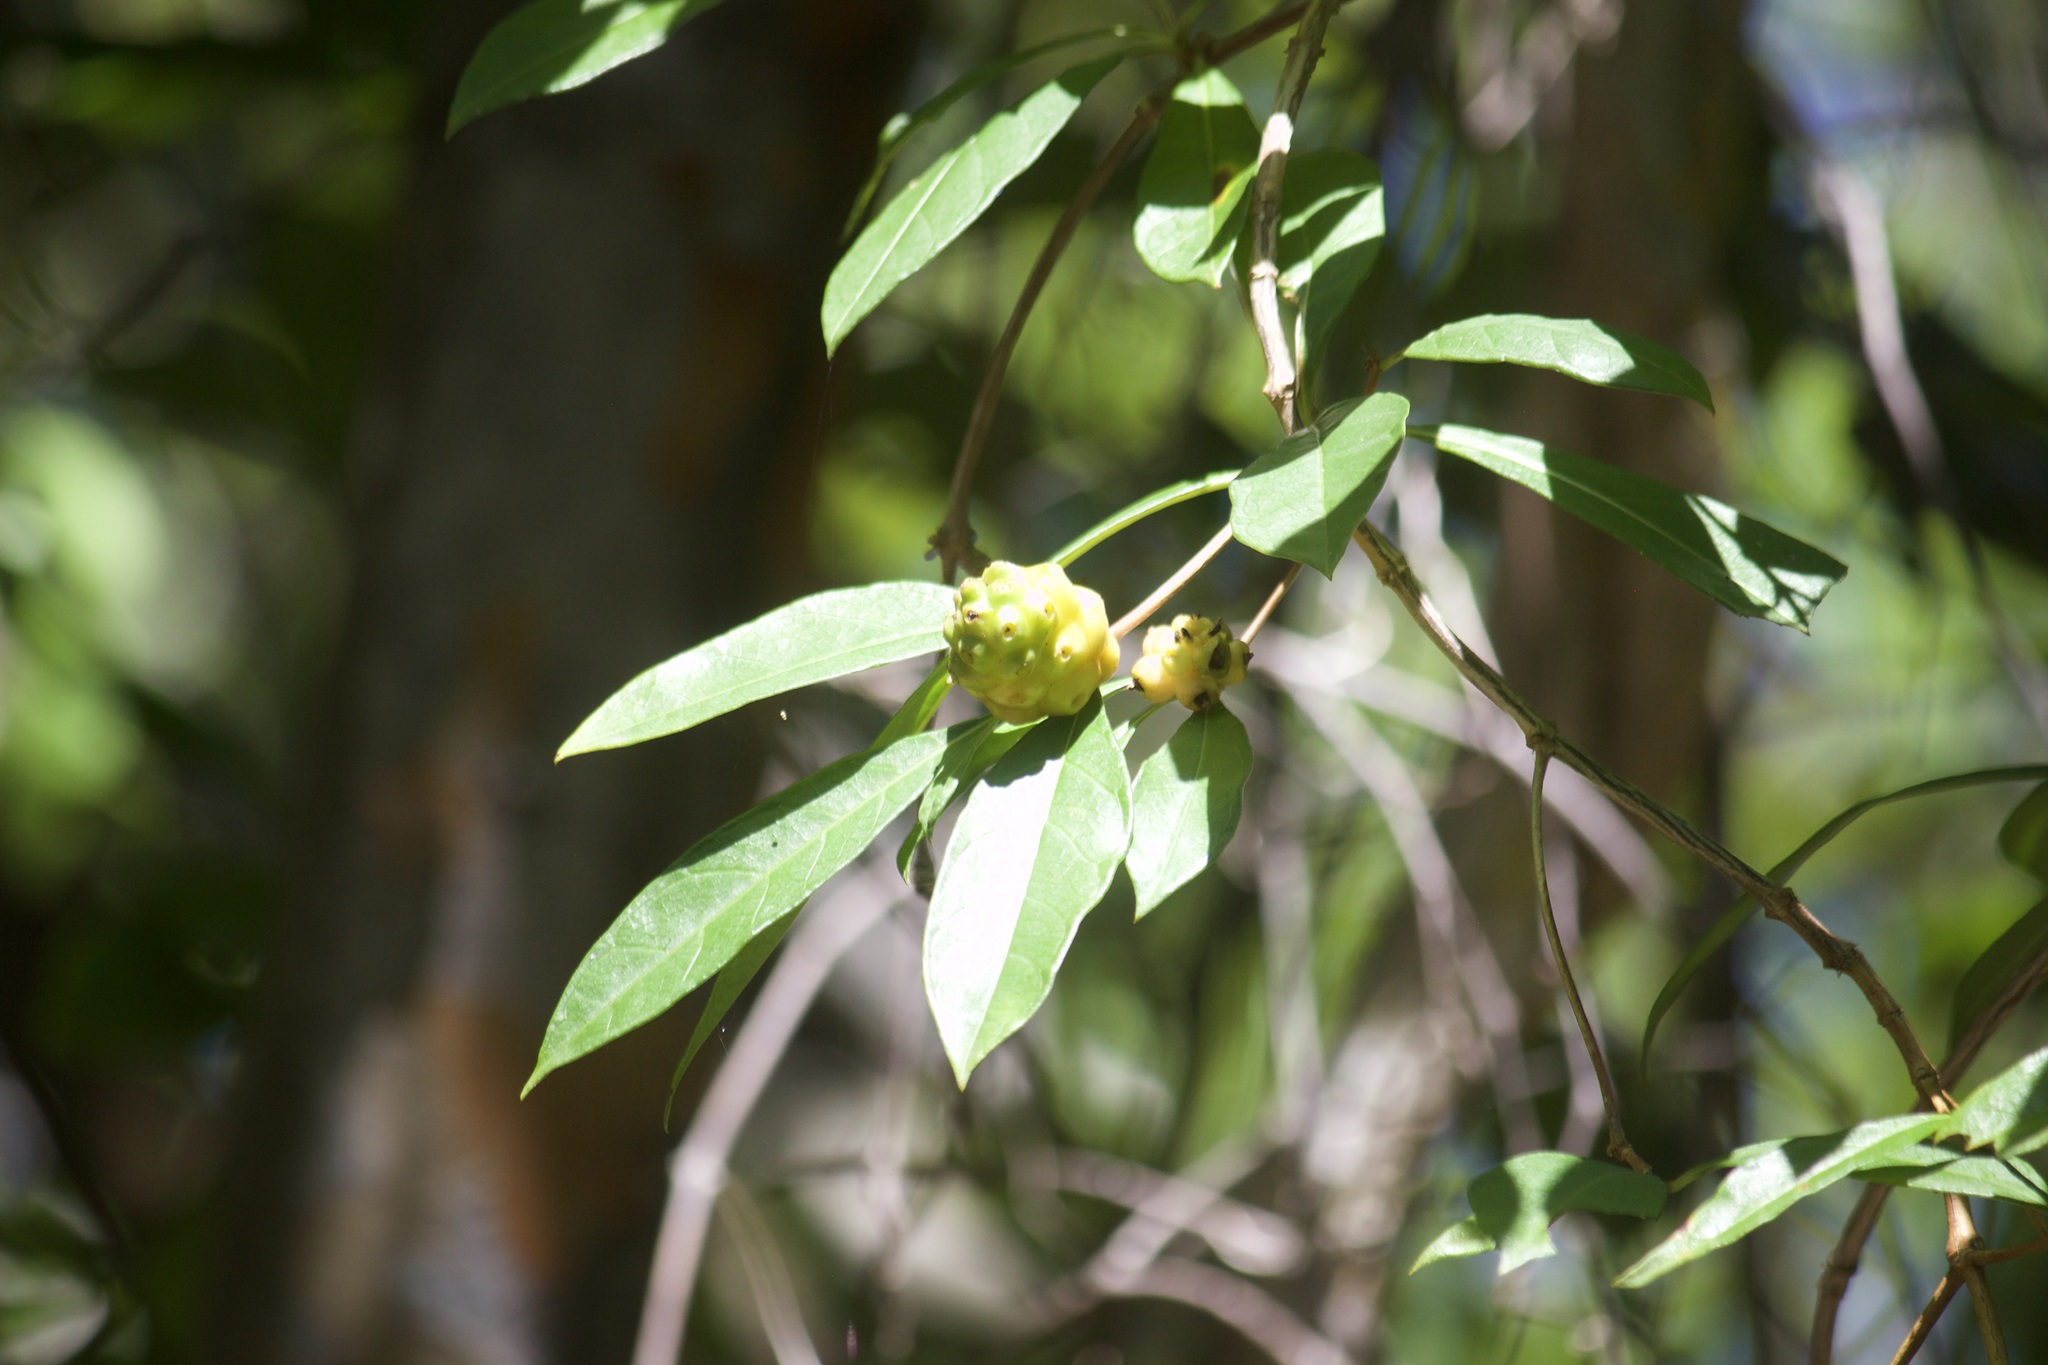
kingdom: Plantae
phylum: Tracheophyta
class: Magnoliopsida
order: Gentianales
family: Rubiaceae
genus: Morinda
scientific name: Morinda royoc
